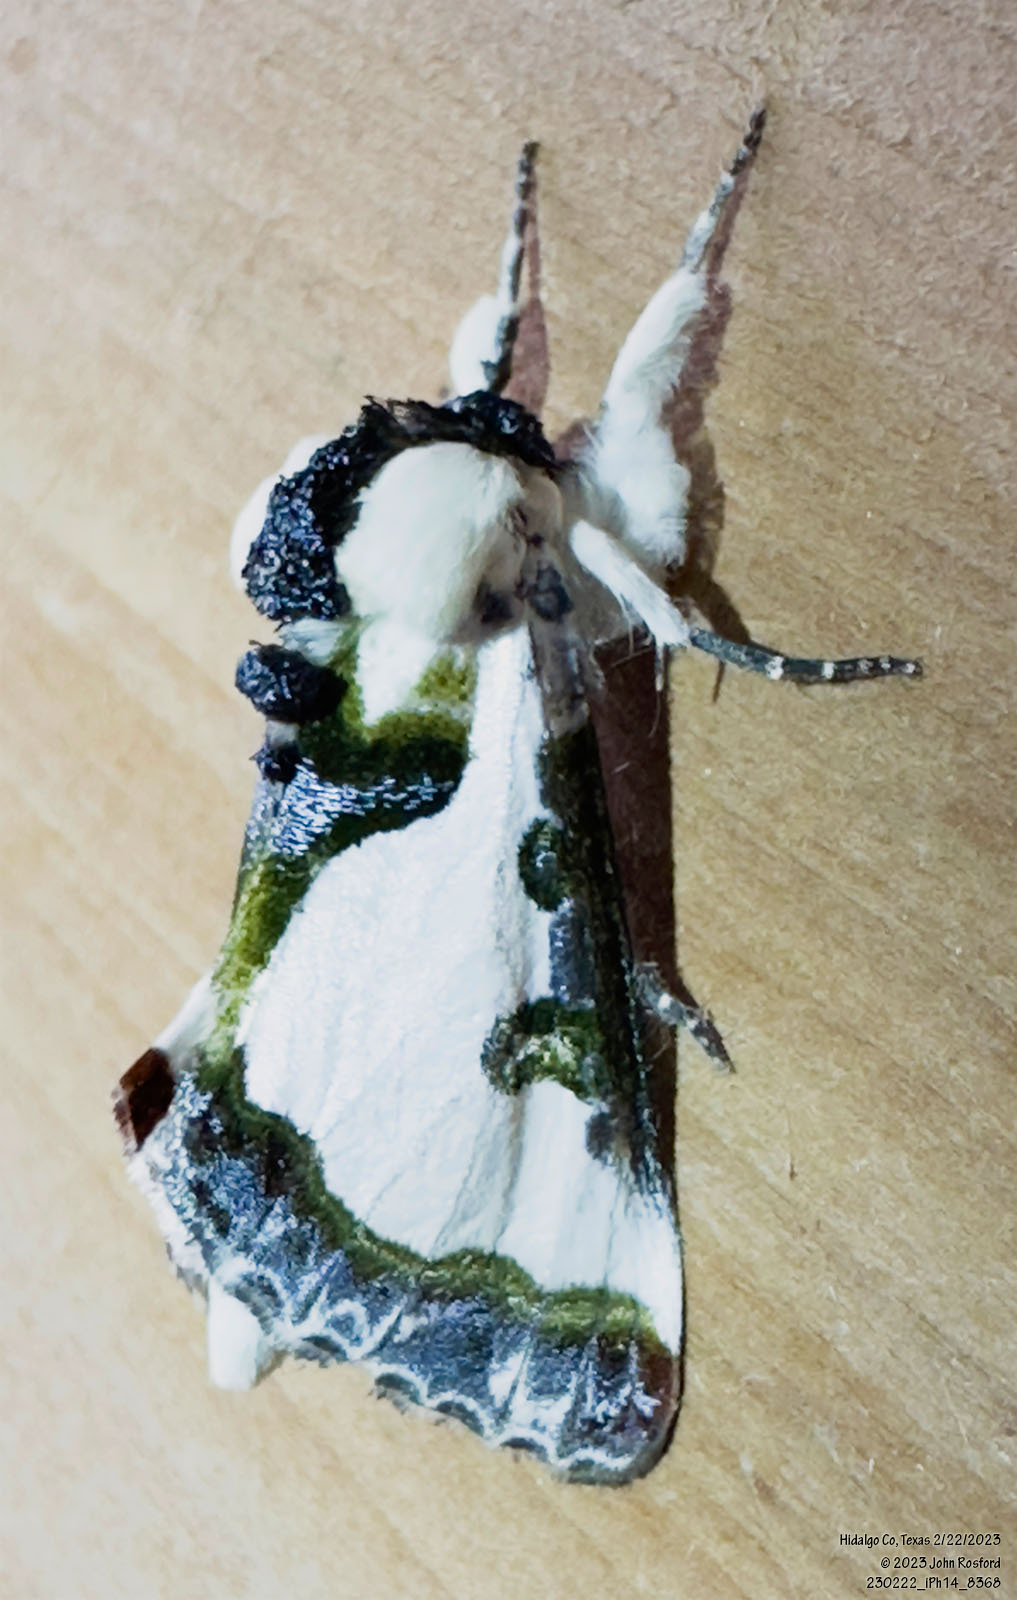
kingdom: Animalia
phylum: Arthropoda
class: Insecta
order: Lepidoptera
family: Noctuidae
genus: Xerociris
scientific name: Xerociris wilsonii
